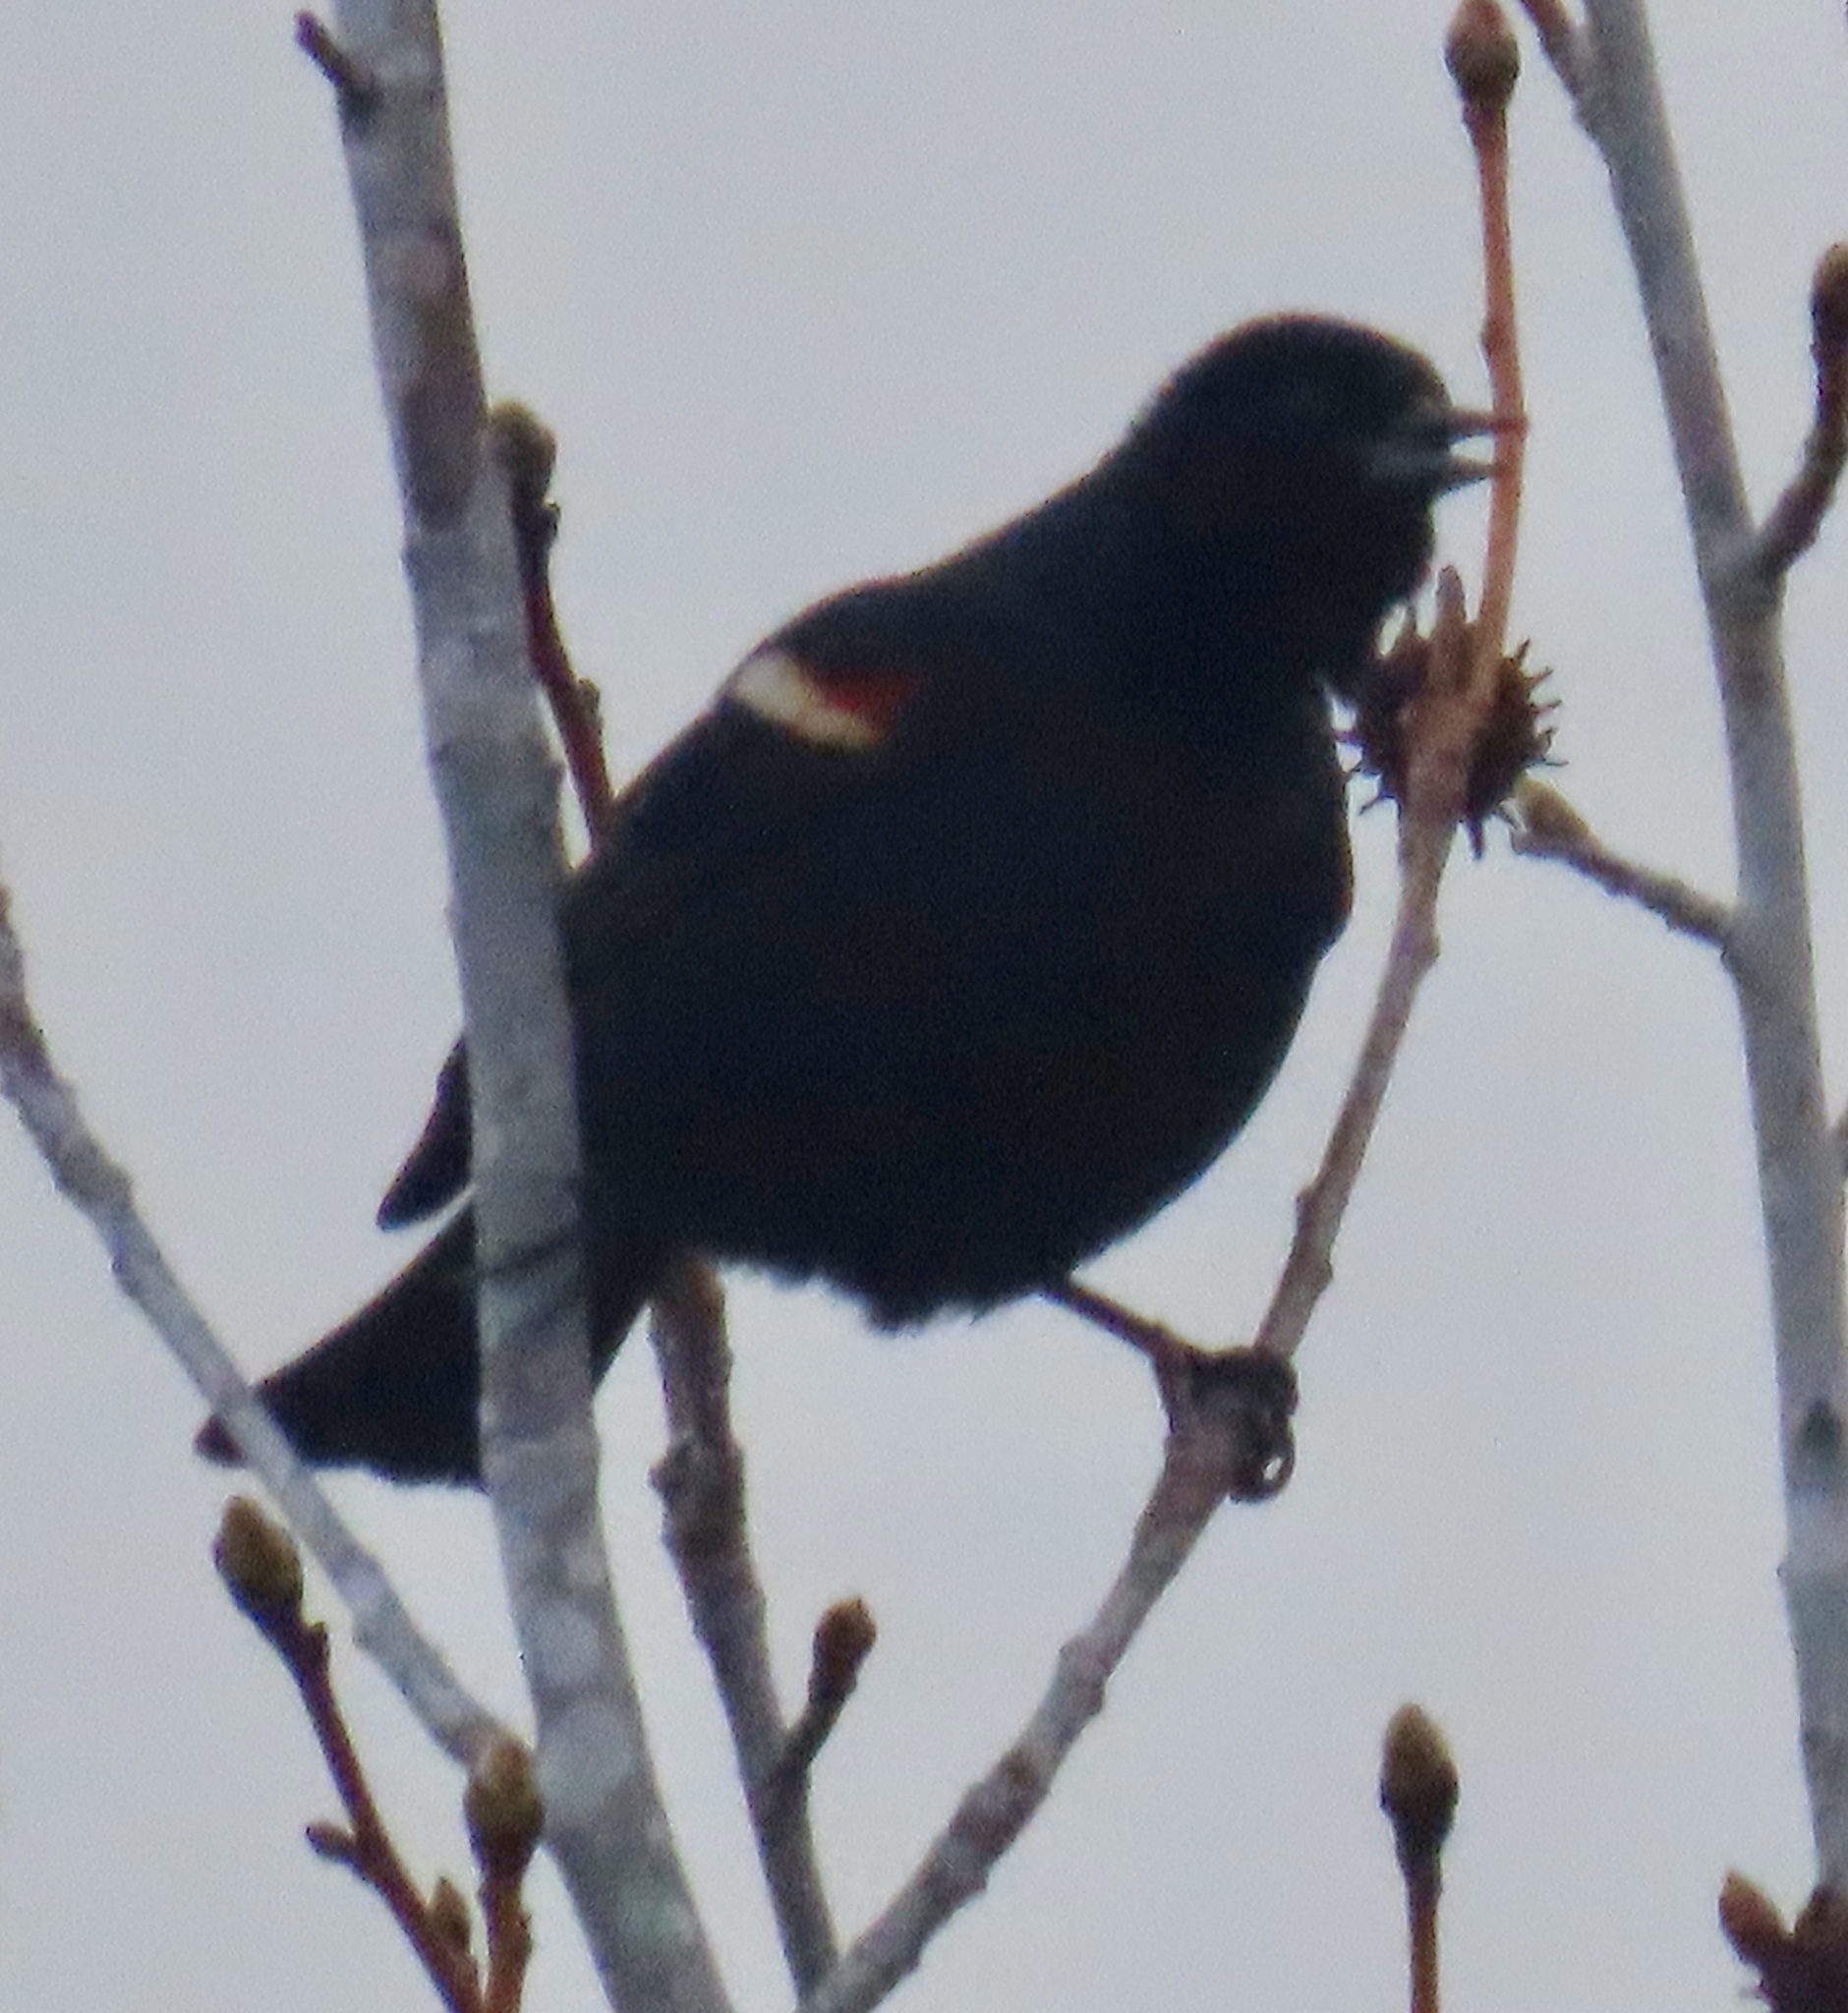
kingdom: Animalia
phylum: Chordata
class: Aves
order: Passeriformes
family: Icteridae
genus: Agelaius
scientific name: Agelaius tricolor
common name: Tricolored blackbird
